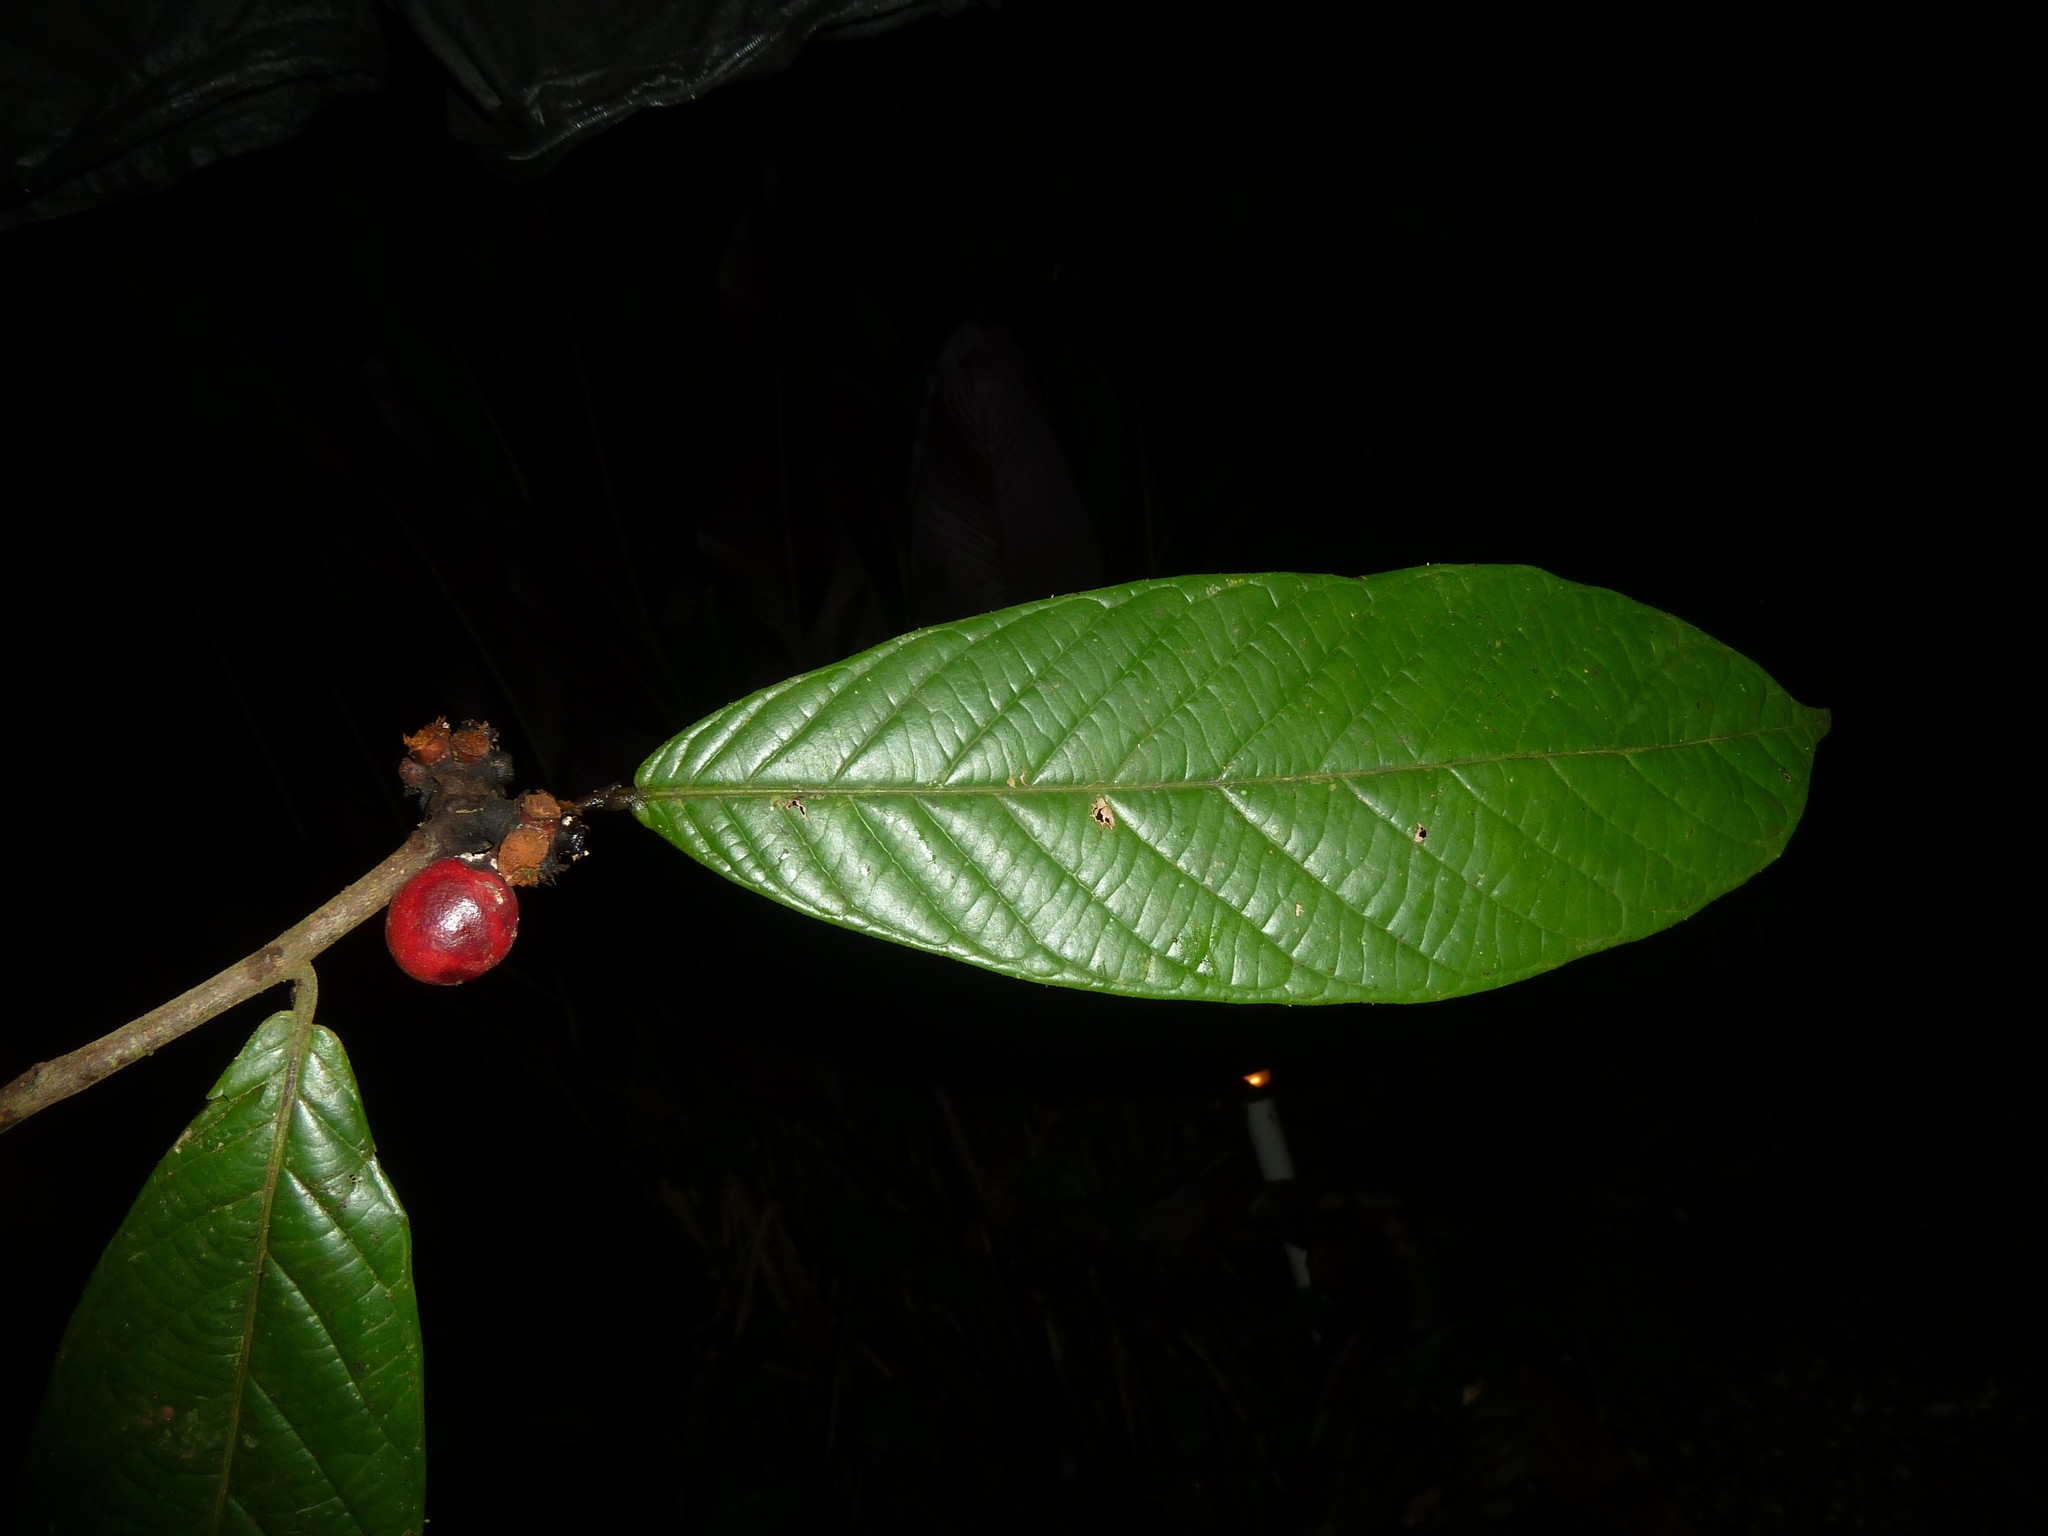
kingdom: Plantae
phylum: Tracheophyta
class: Magnoliopsida
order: Magnoliales
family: Annonaceae
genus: Unonopsis
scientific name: Unonopsis theobromifolia
